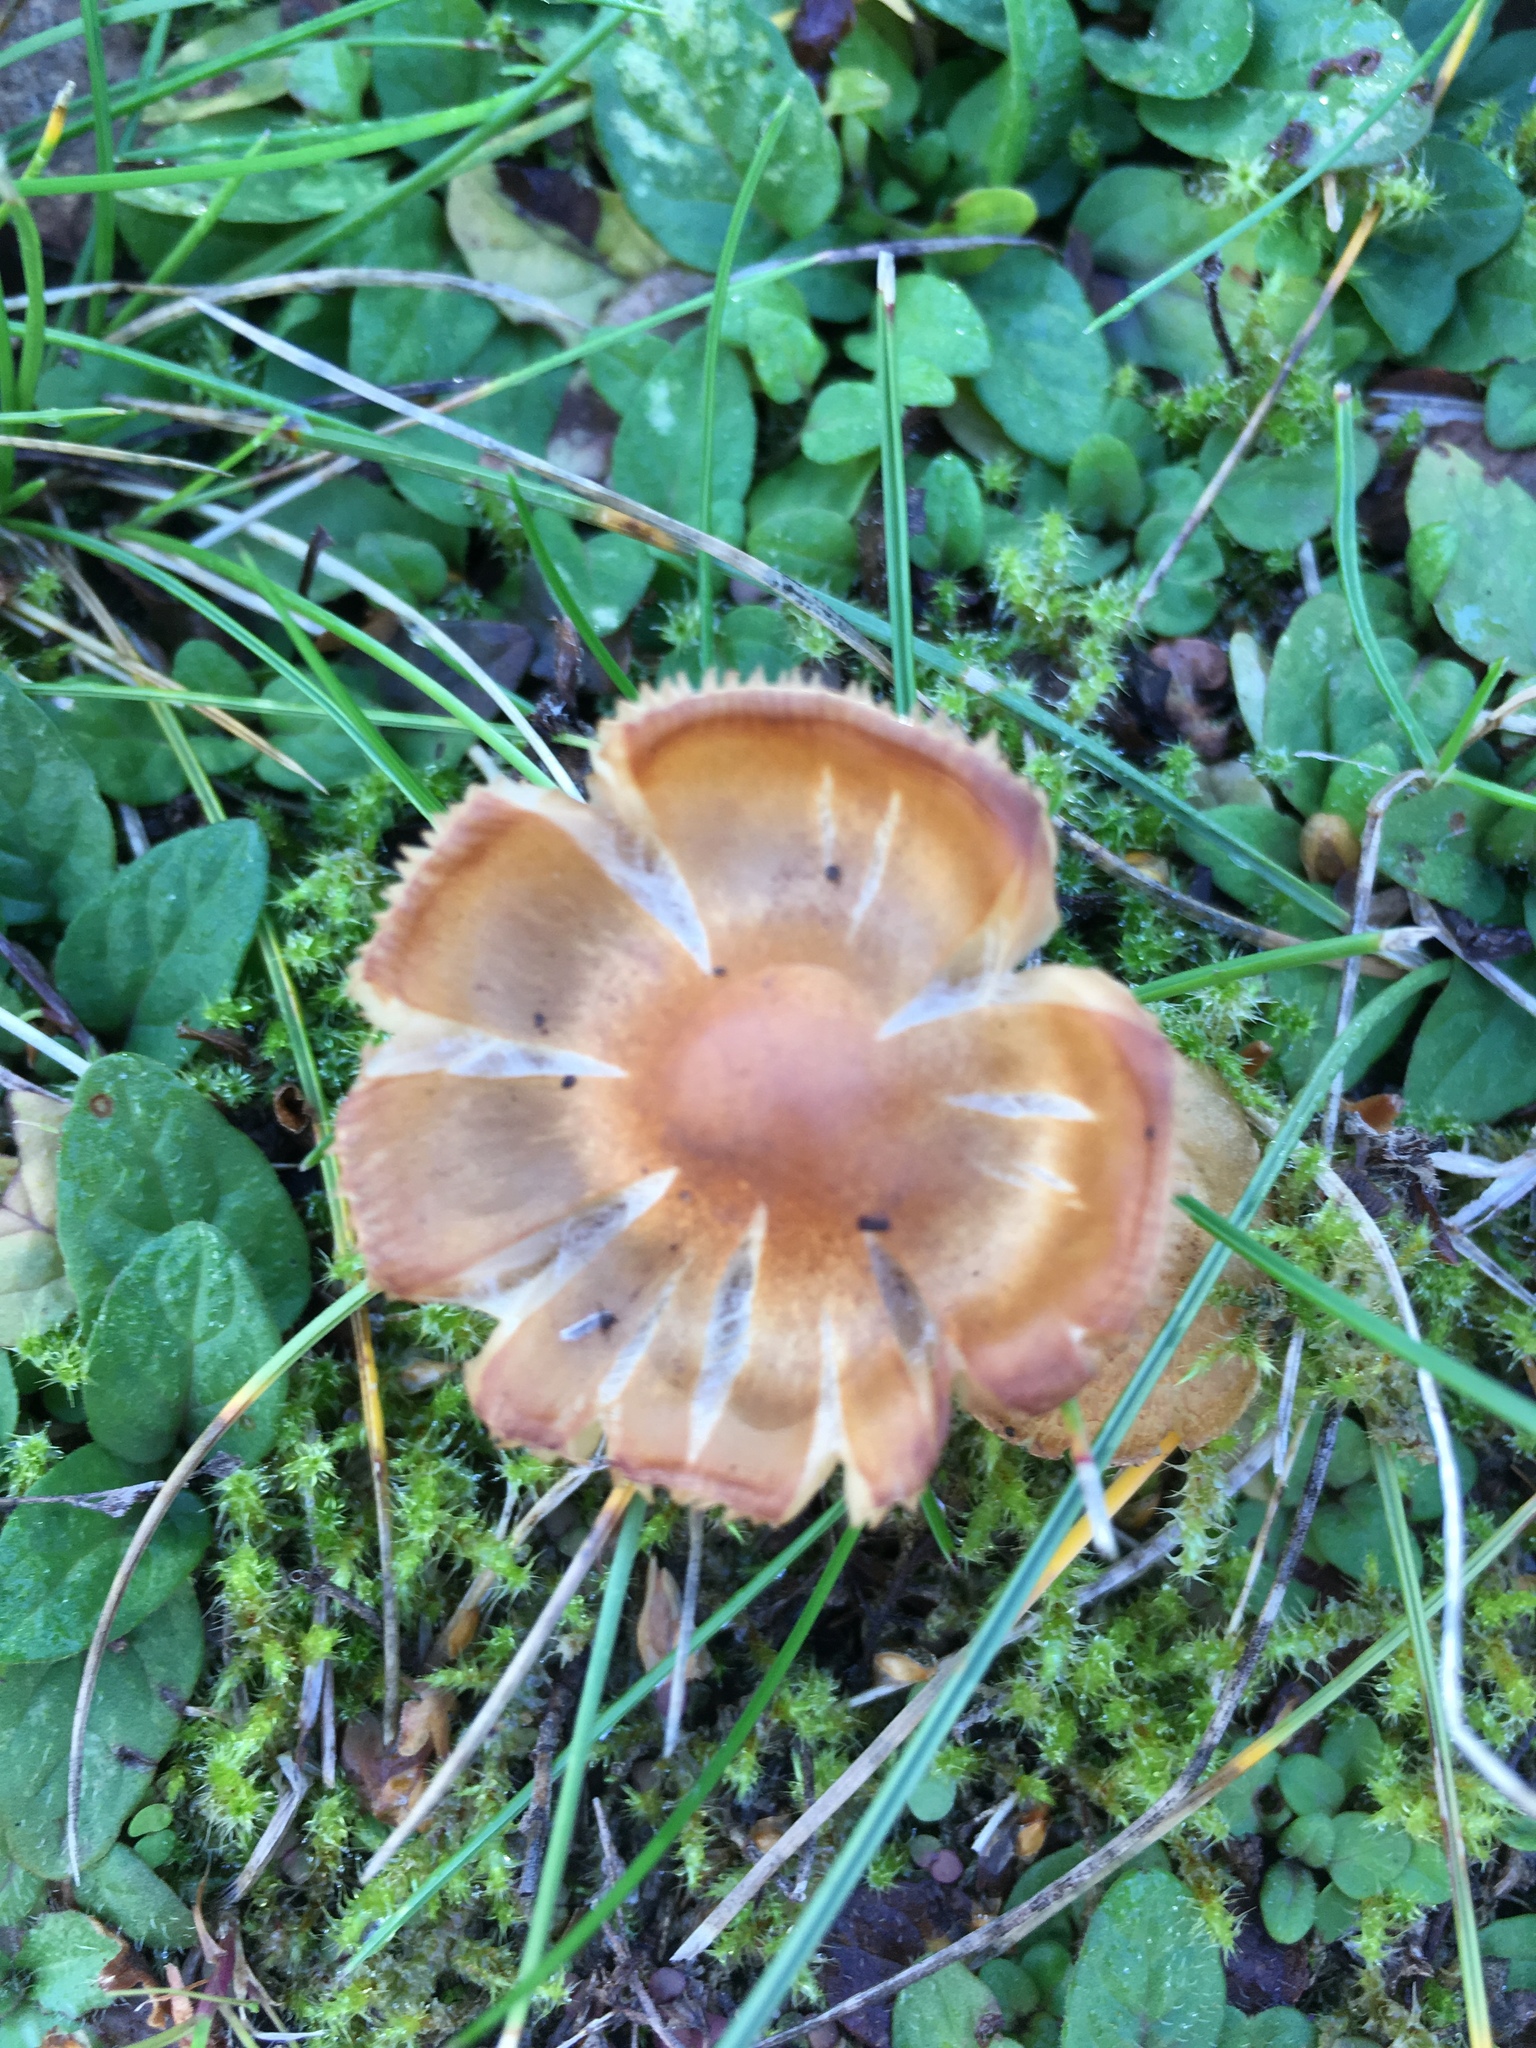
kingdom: Fungi
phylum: Basidiomycota
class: Agaricomycetes
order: Agaricales
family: Marasmiaceae
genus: Marasmius
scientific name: Marasmius oreades
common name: Fairy ring champignon
